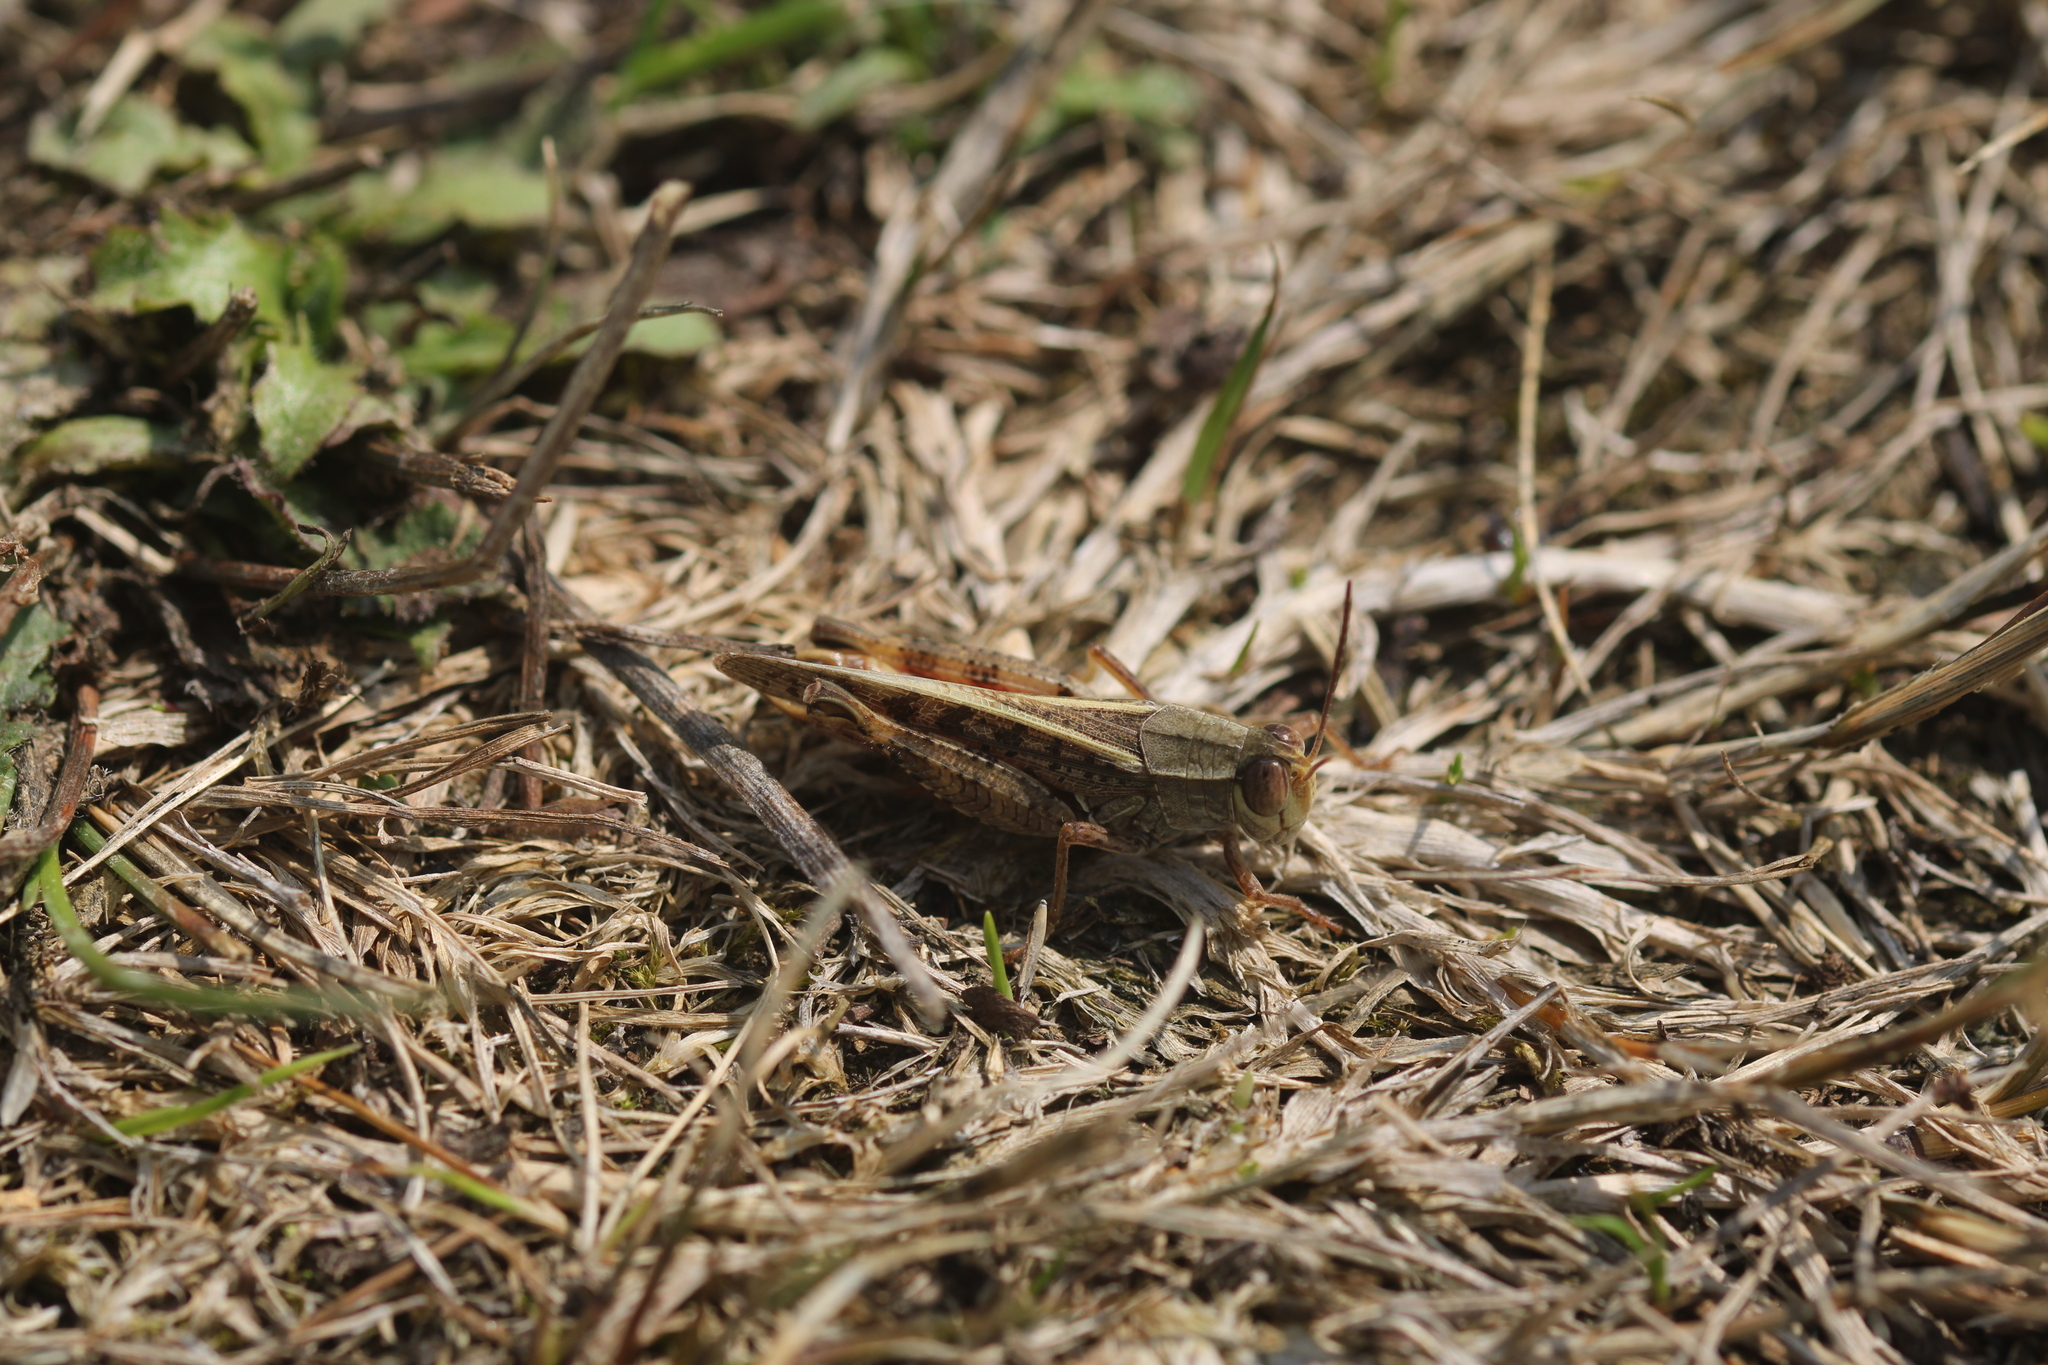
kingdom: Animalia
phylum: Arthropoda
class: Insecta
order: Orthoptera
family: Acrididae
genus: Calliptamus
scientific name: Calliptamus italicus
